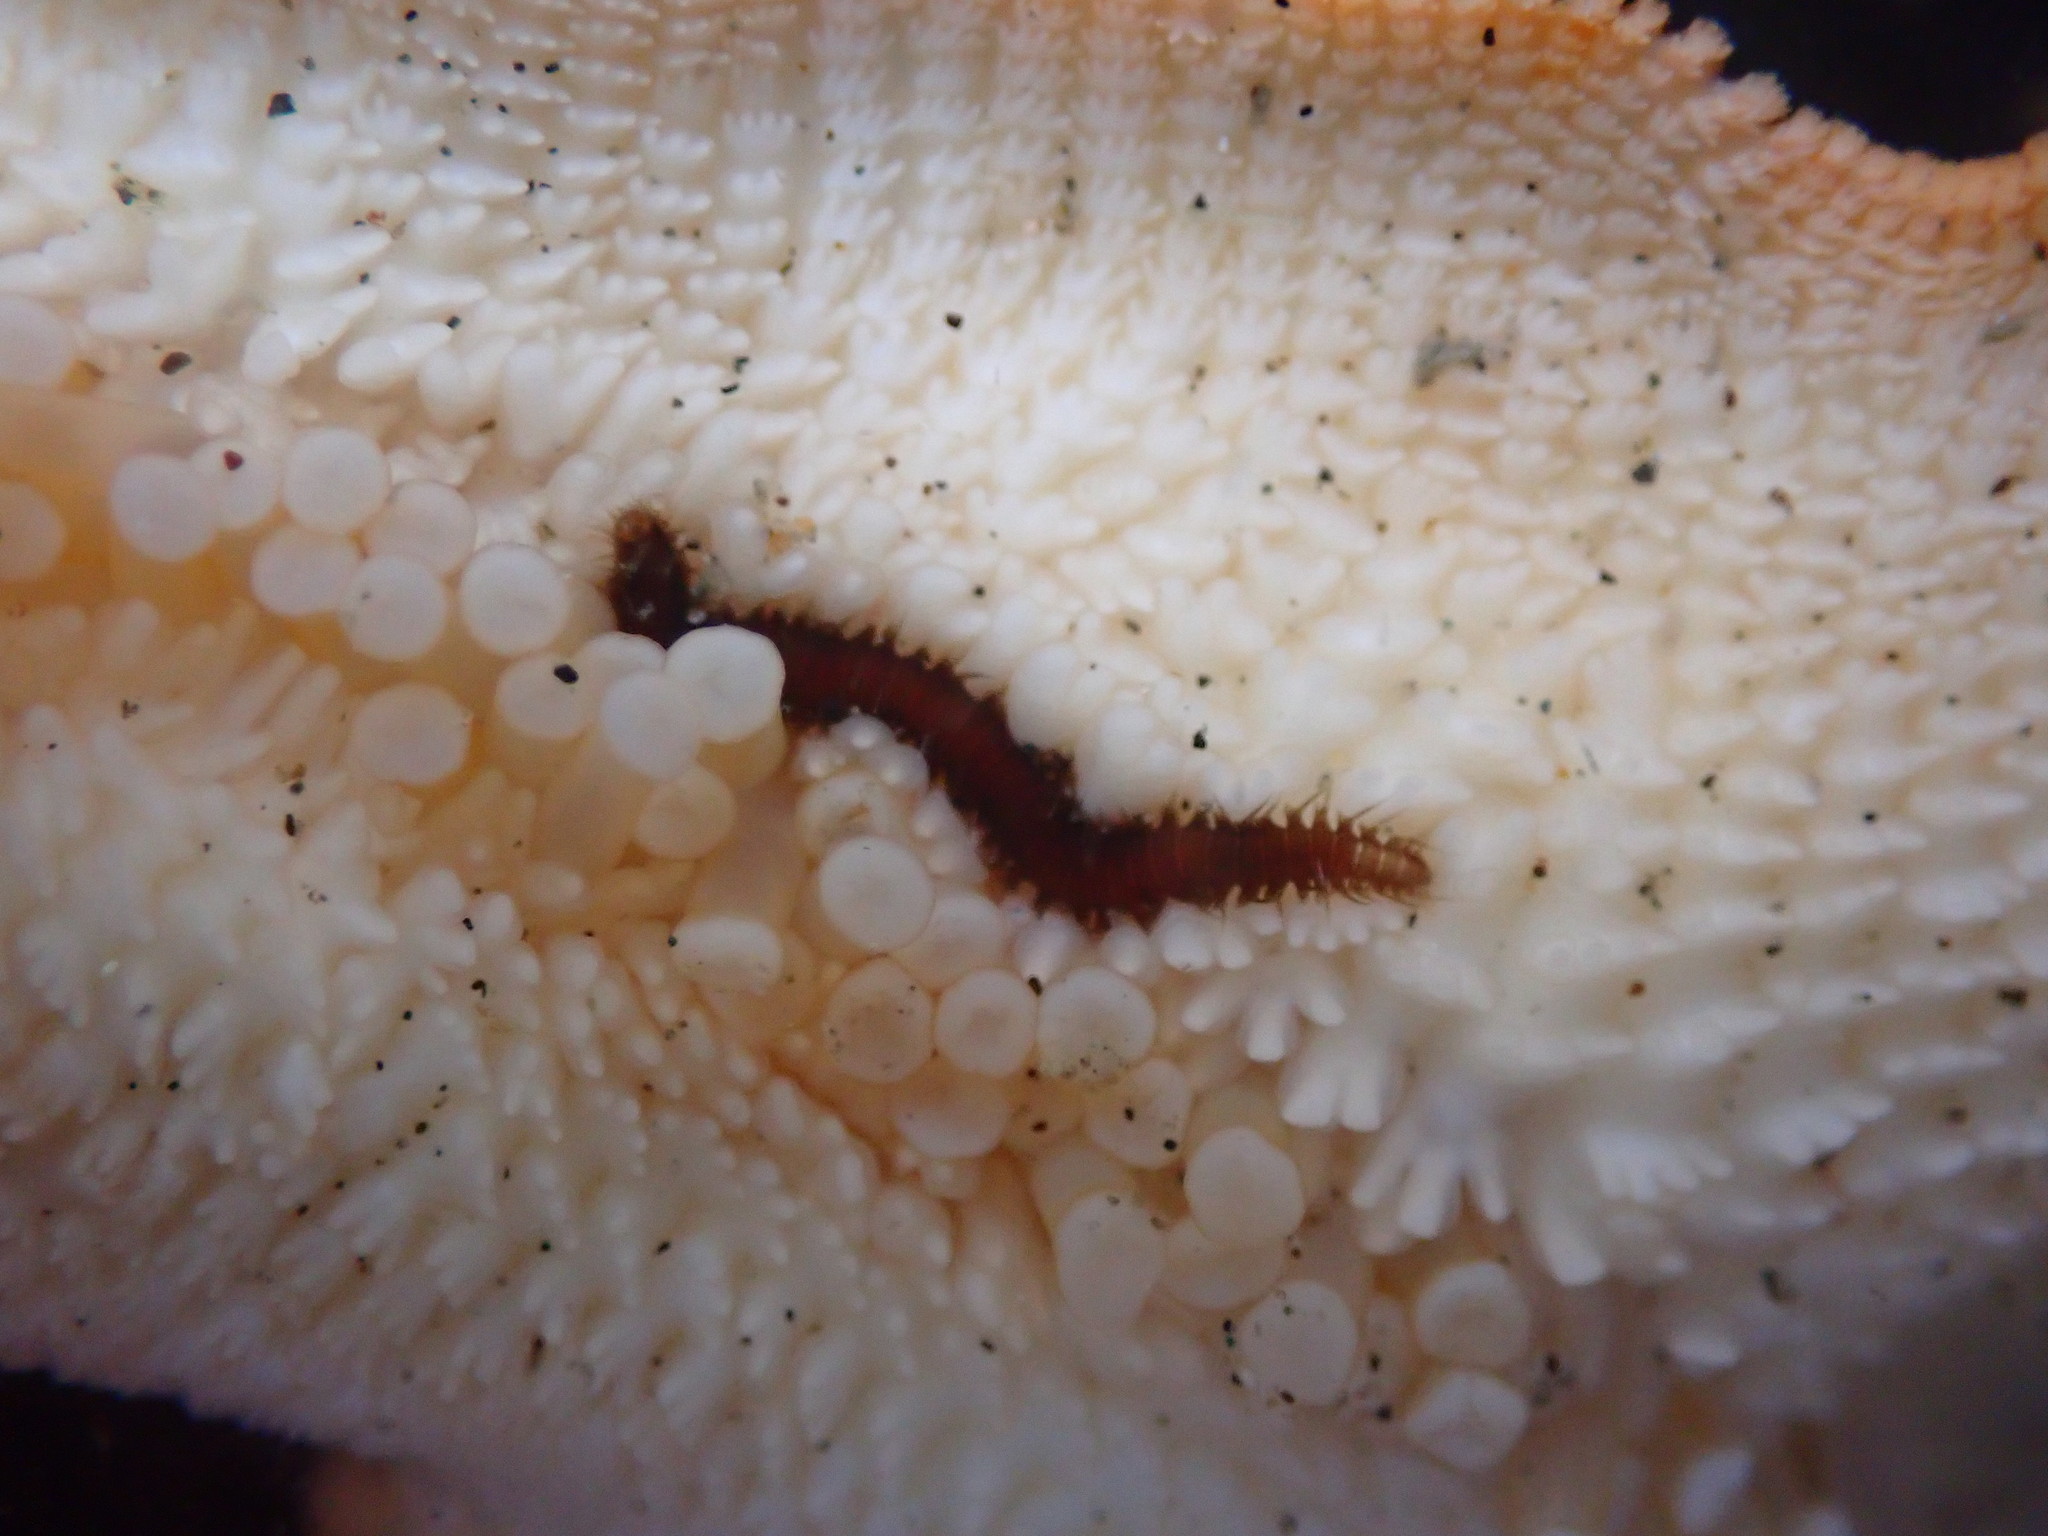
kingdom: Animalia
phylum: Annelida
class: Polychaeta
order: Phyllodocida
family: Hesionidae
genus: Oxydromus
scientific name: Oxydromus pugettensis
